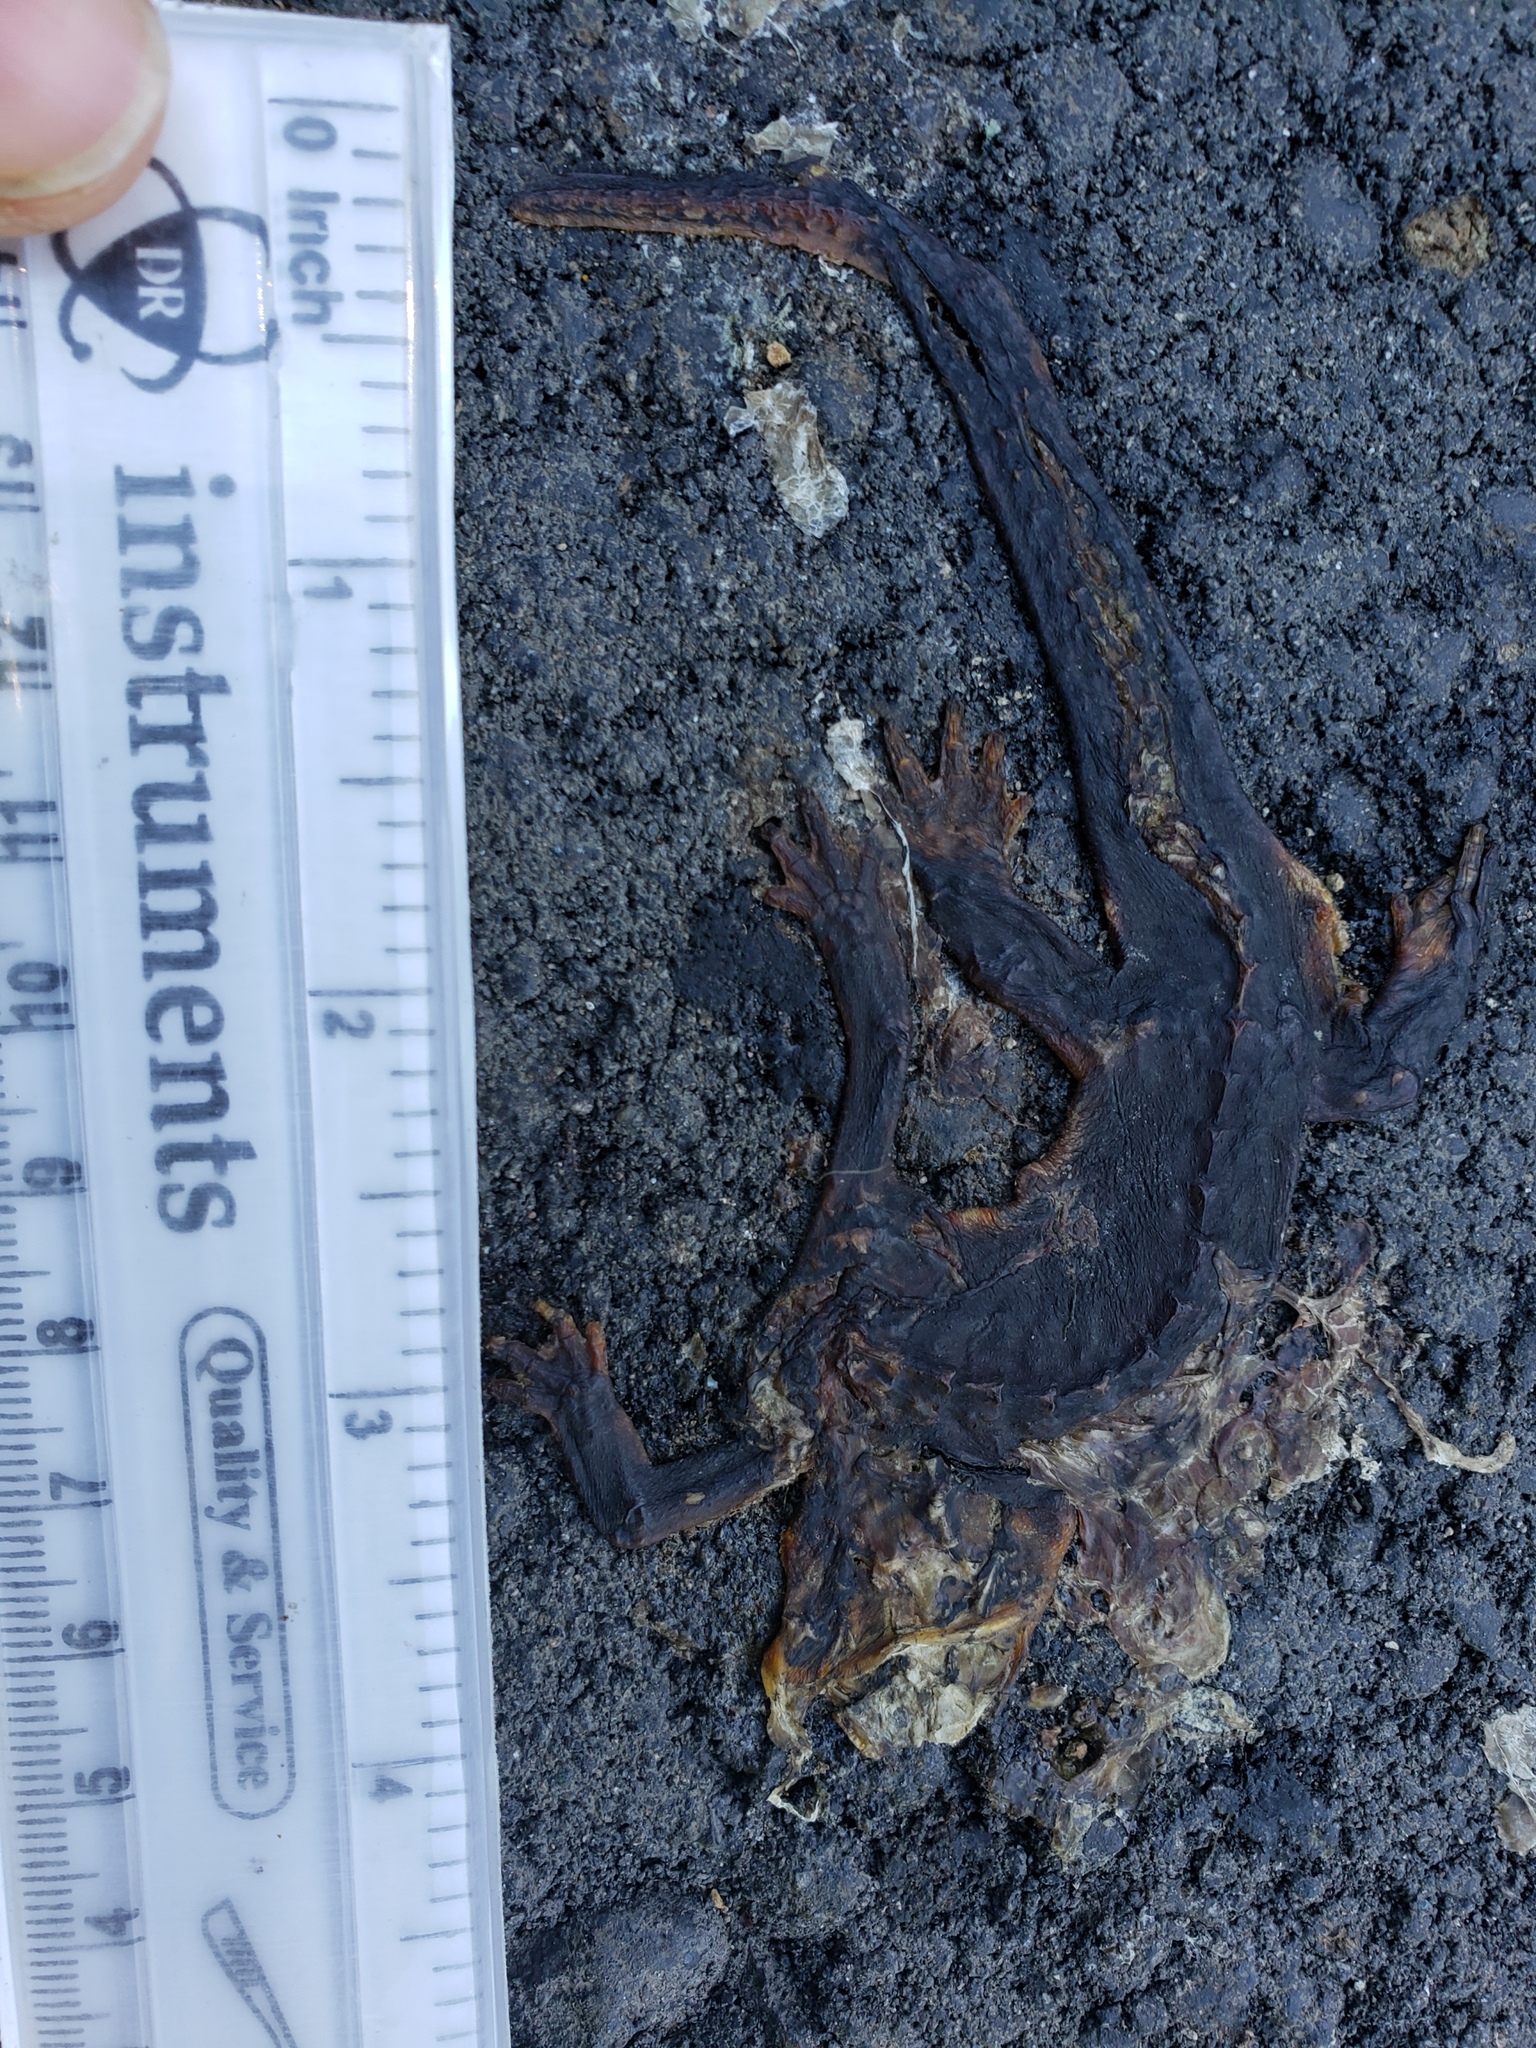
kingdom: Animalia
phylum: Chordata
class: Amphibia
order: Caudata
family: Salamandridae
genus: Taricha
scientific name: Taricha
